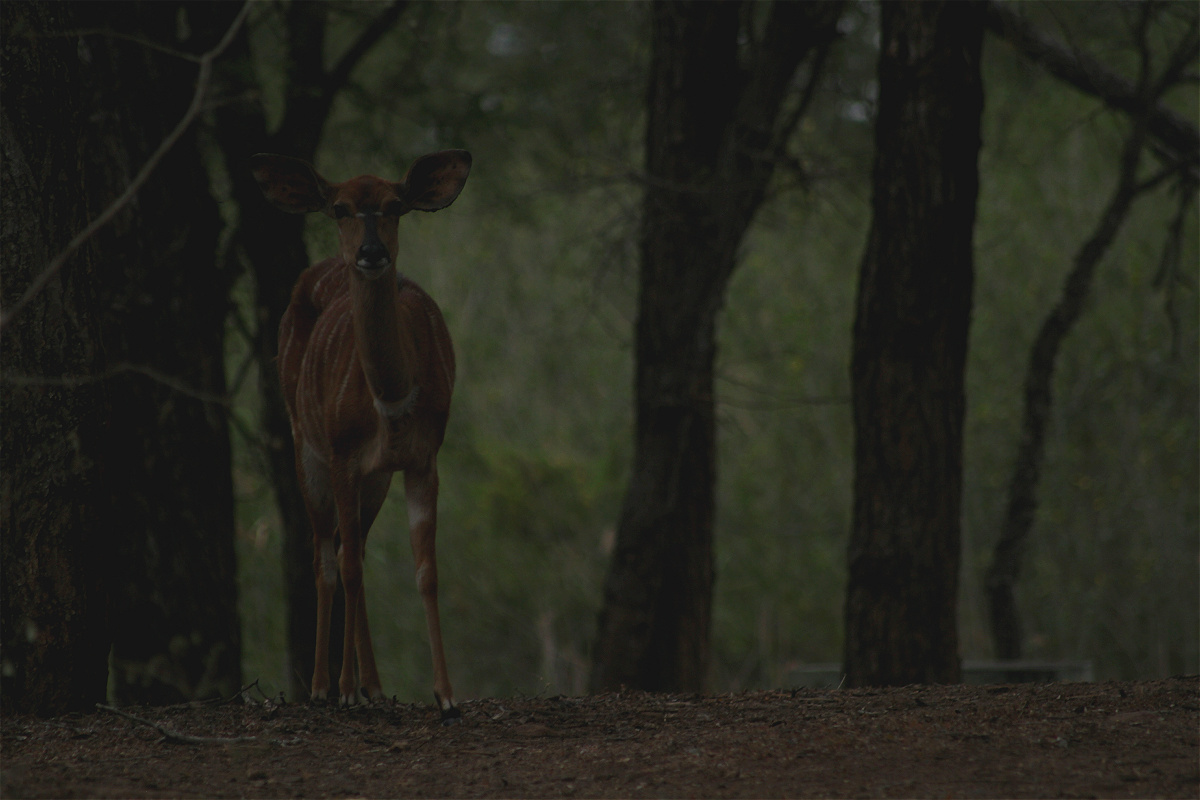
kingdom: Animalia
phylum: Chordata
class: Mammalia
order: Artiodactyla
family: Bovidae
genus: Tragelaphus
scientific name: Tragelaphus angasii
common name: Nyala
